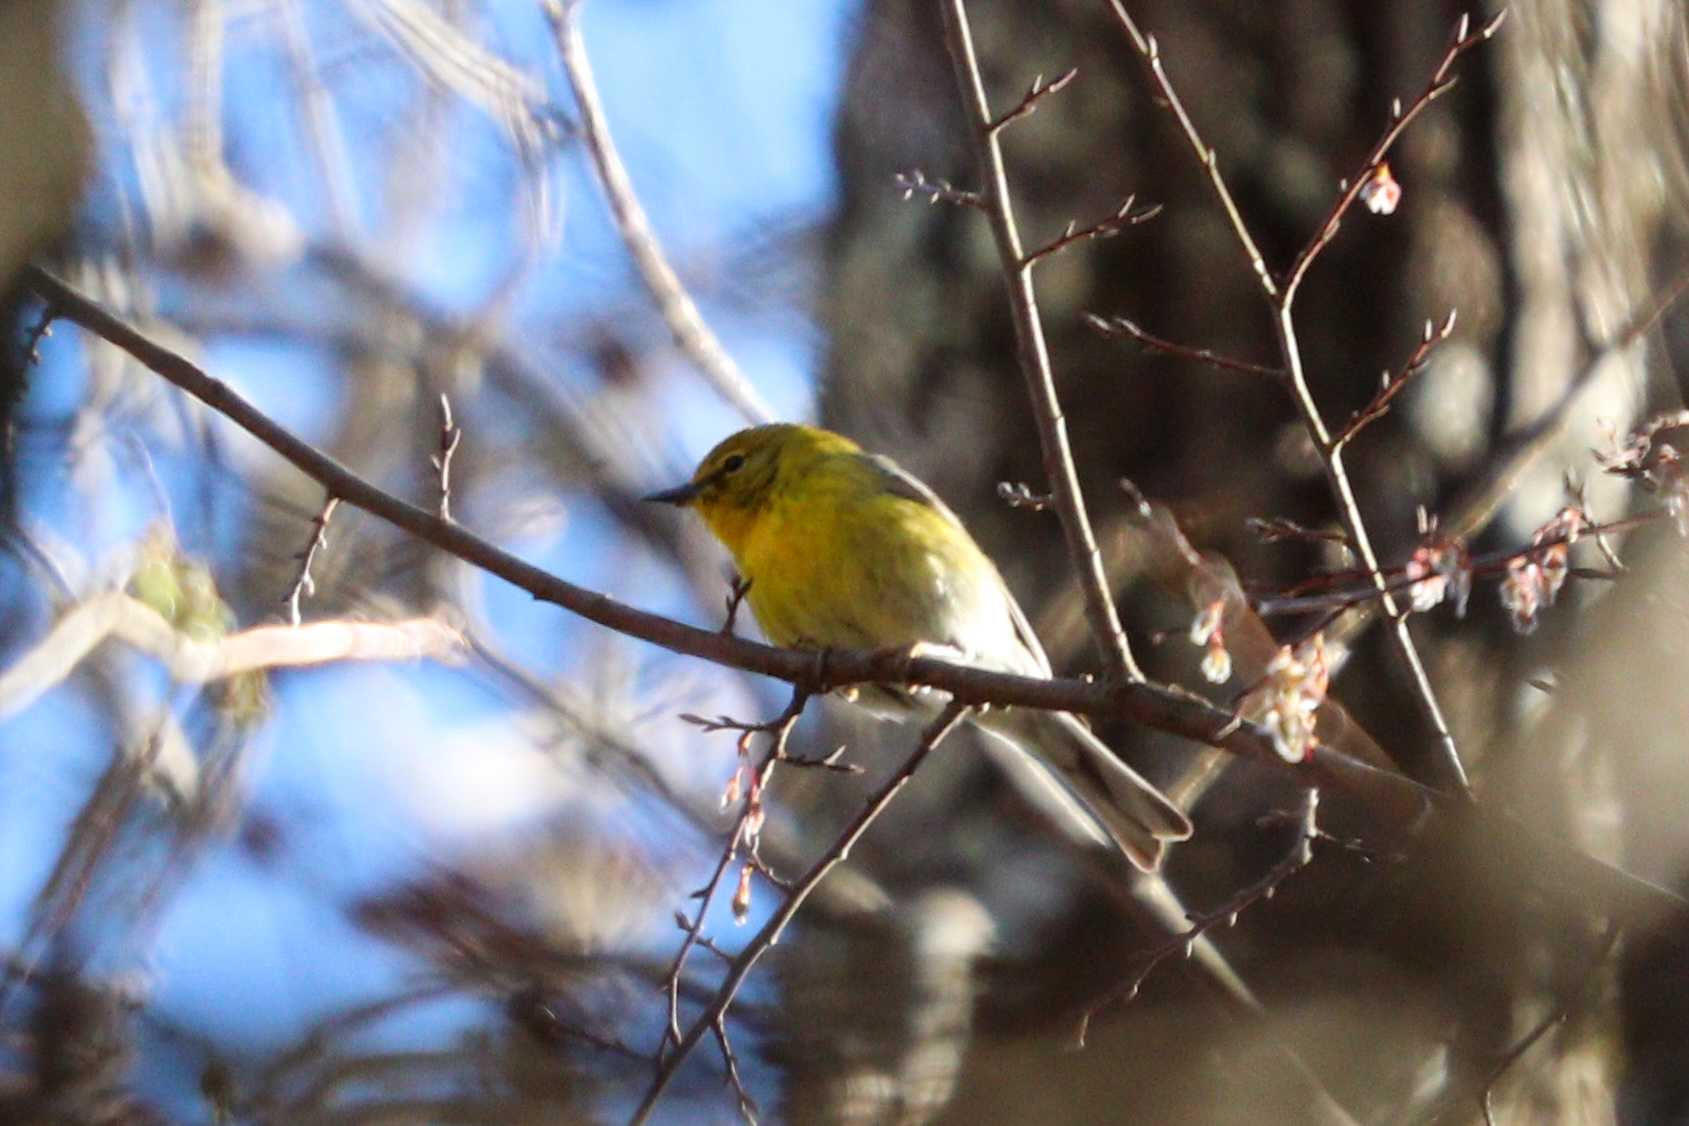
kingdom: Animalia
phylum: Chordata
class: Aves
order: Passeriformes
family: Parulidae
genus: Setophaga
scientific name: Setophaga pinus
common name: Pine warbler
